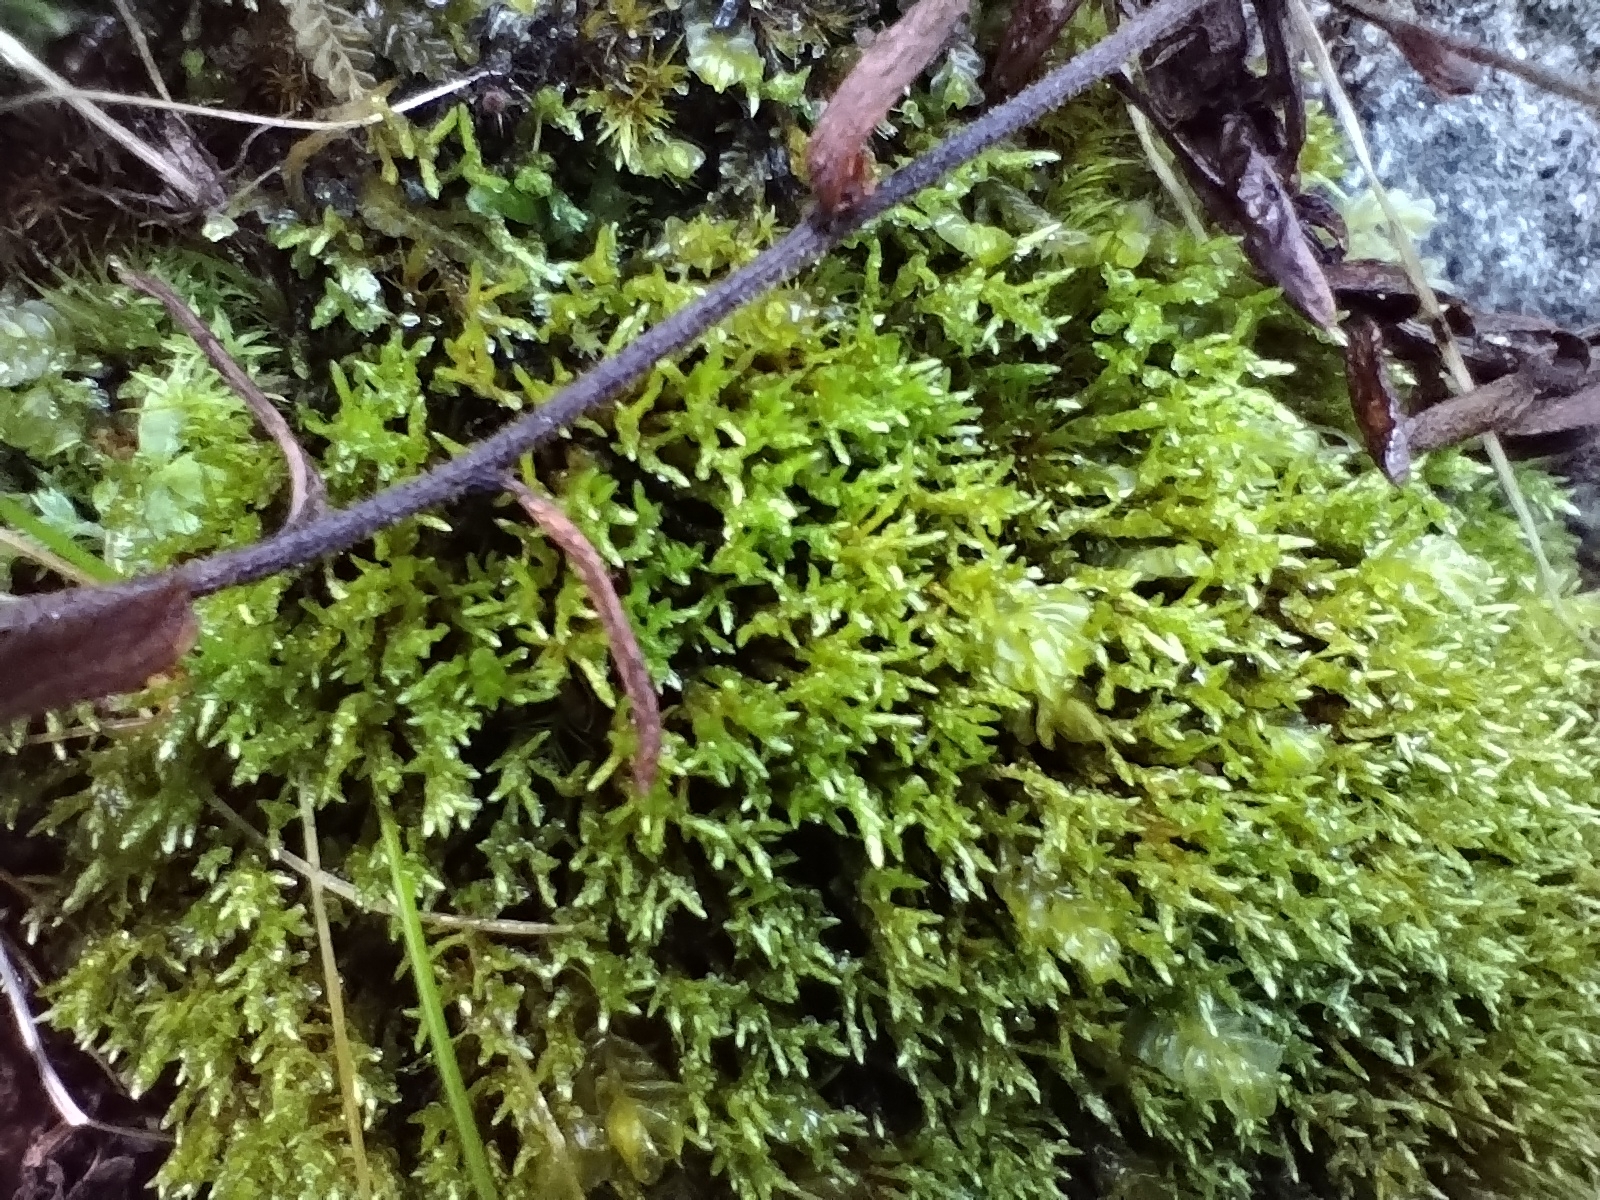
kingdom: Plantae
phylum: Bryophyta
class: Bryopsida
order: Bryales
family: Bryaceae
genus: Anomobryum
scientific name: Anomobryum julaceum
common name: Slender silver moss
